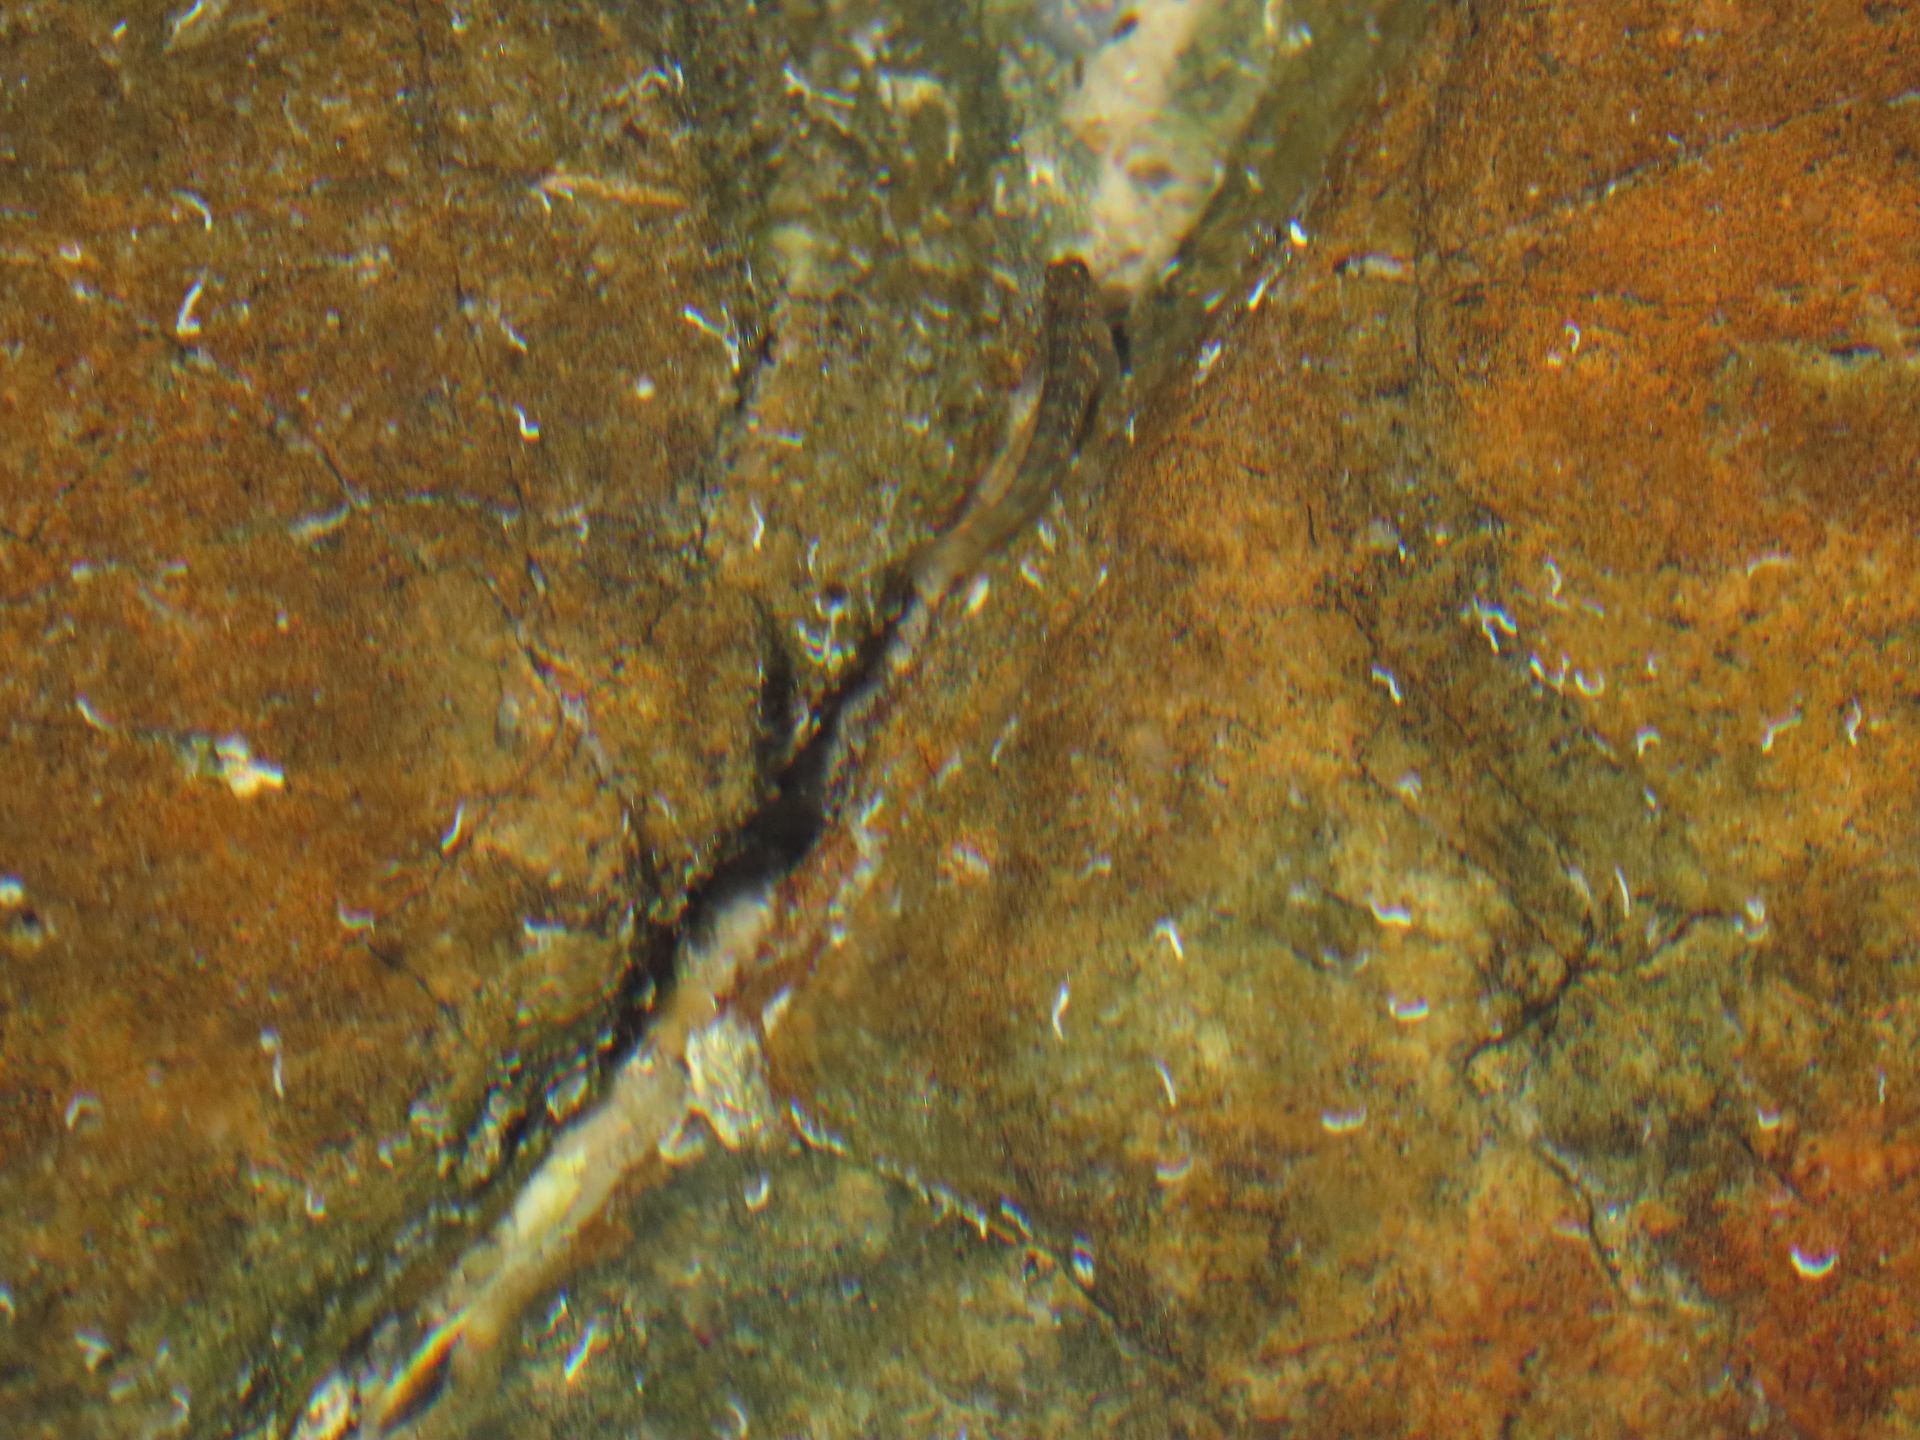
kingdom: Animalia
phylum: Chordata
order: Perciformes
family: Blenniidae
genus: Istiblennius
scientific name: Istiblennius meleagris
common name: Peacock rockskipper
